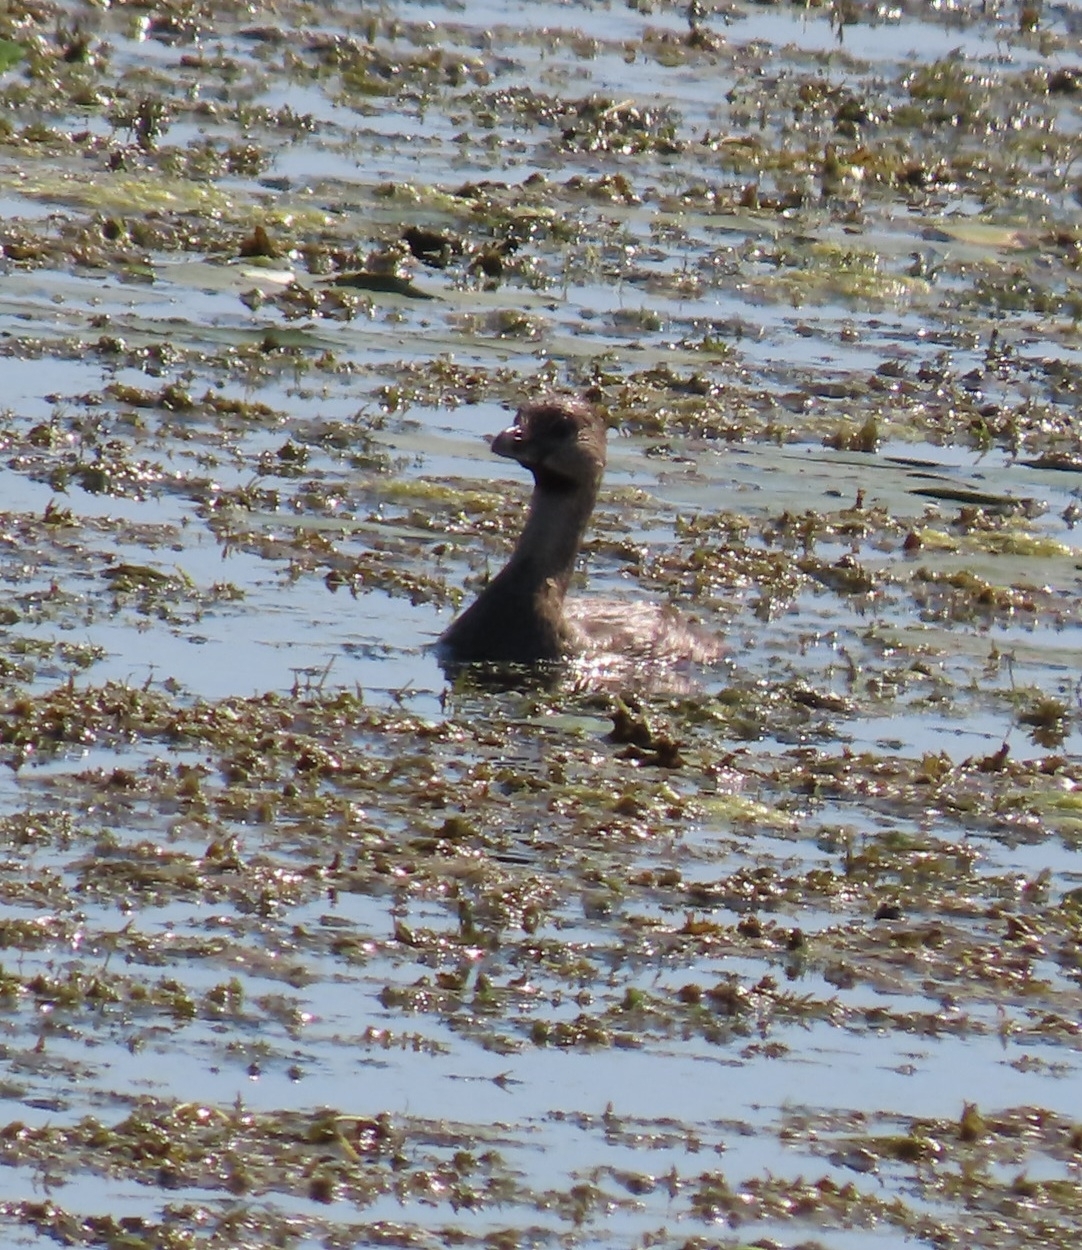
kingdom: Animalia
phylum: Chordata
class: Aves
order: Podicipediformes
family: Podicipedidae
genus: Podilymbus
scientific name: Podilymbus podiceps
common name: Pied-billed grebe
